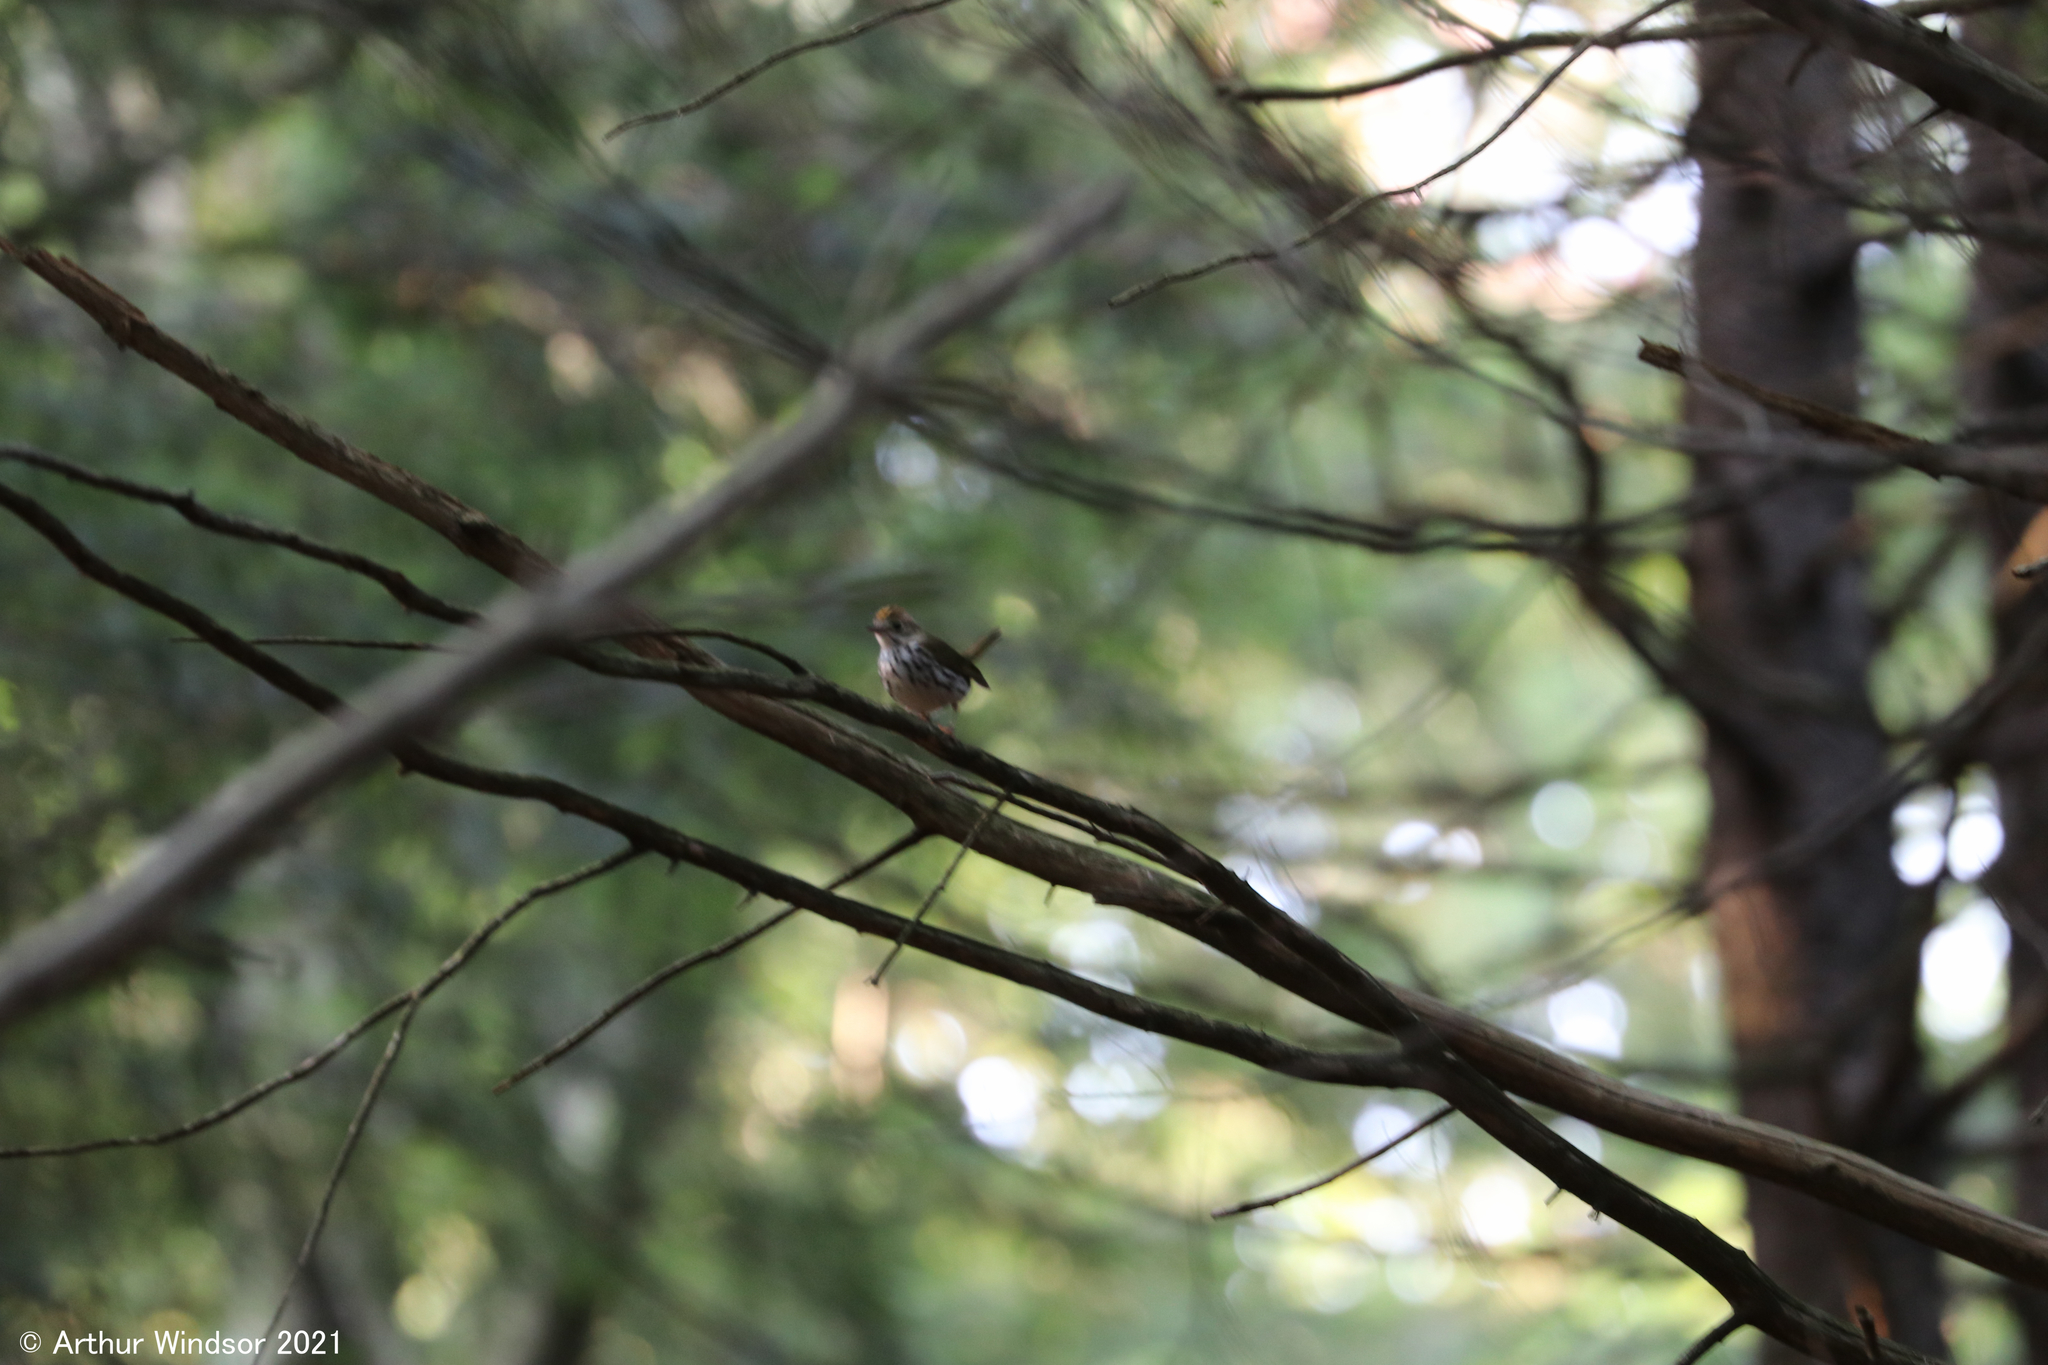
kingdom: Animalia
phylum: Chordata
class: Aves
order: Passeriformes
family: Parulidae
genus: Seiurus
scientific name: Seiurus aurocapilla
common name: Ovenbird
